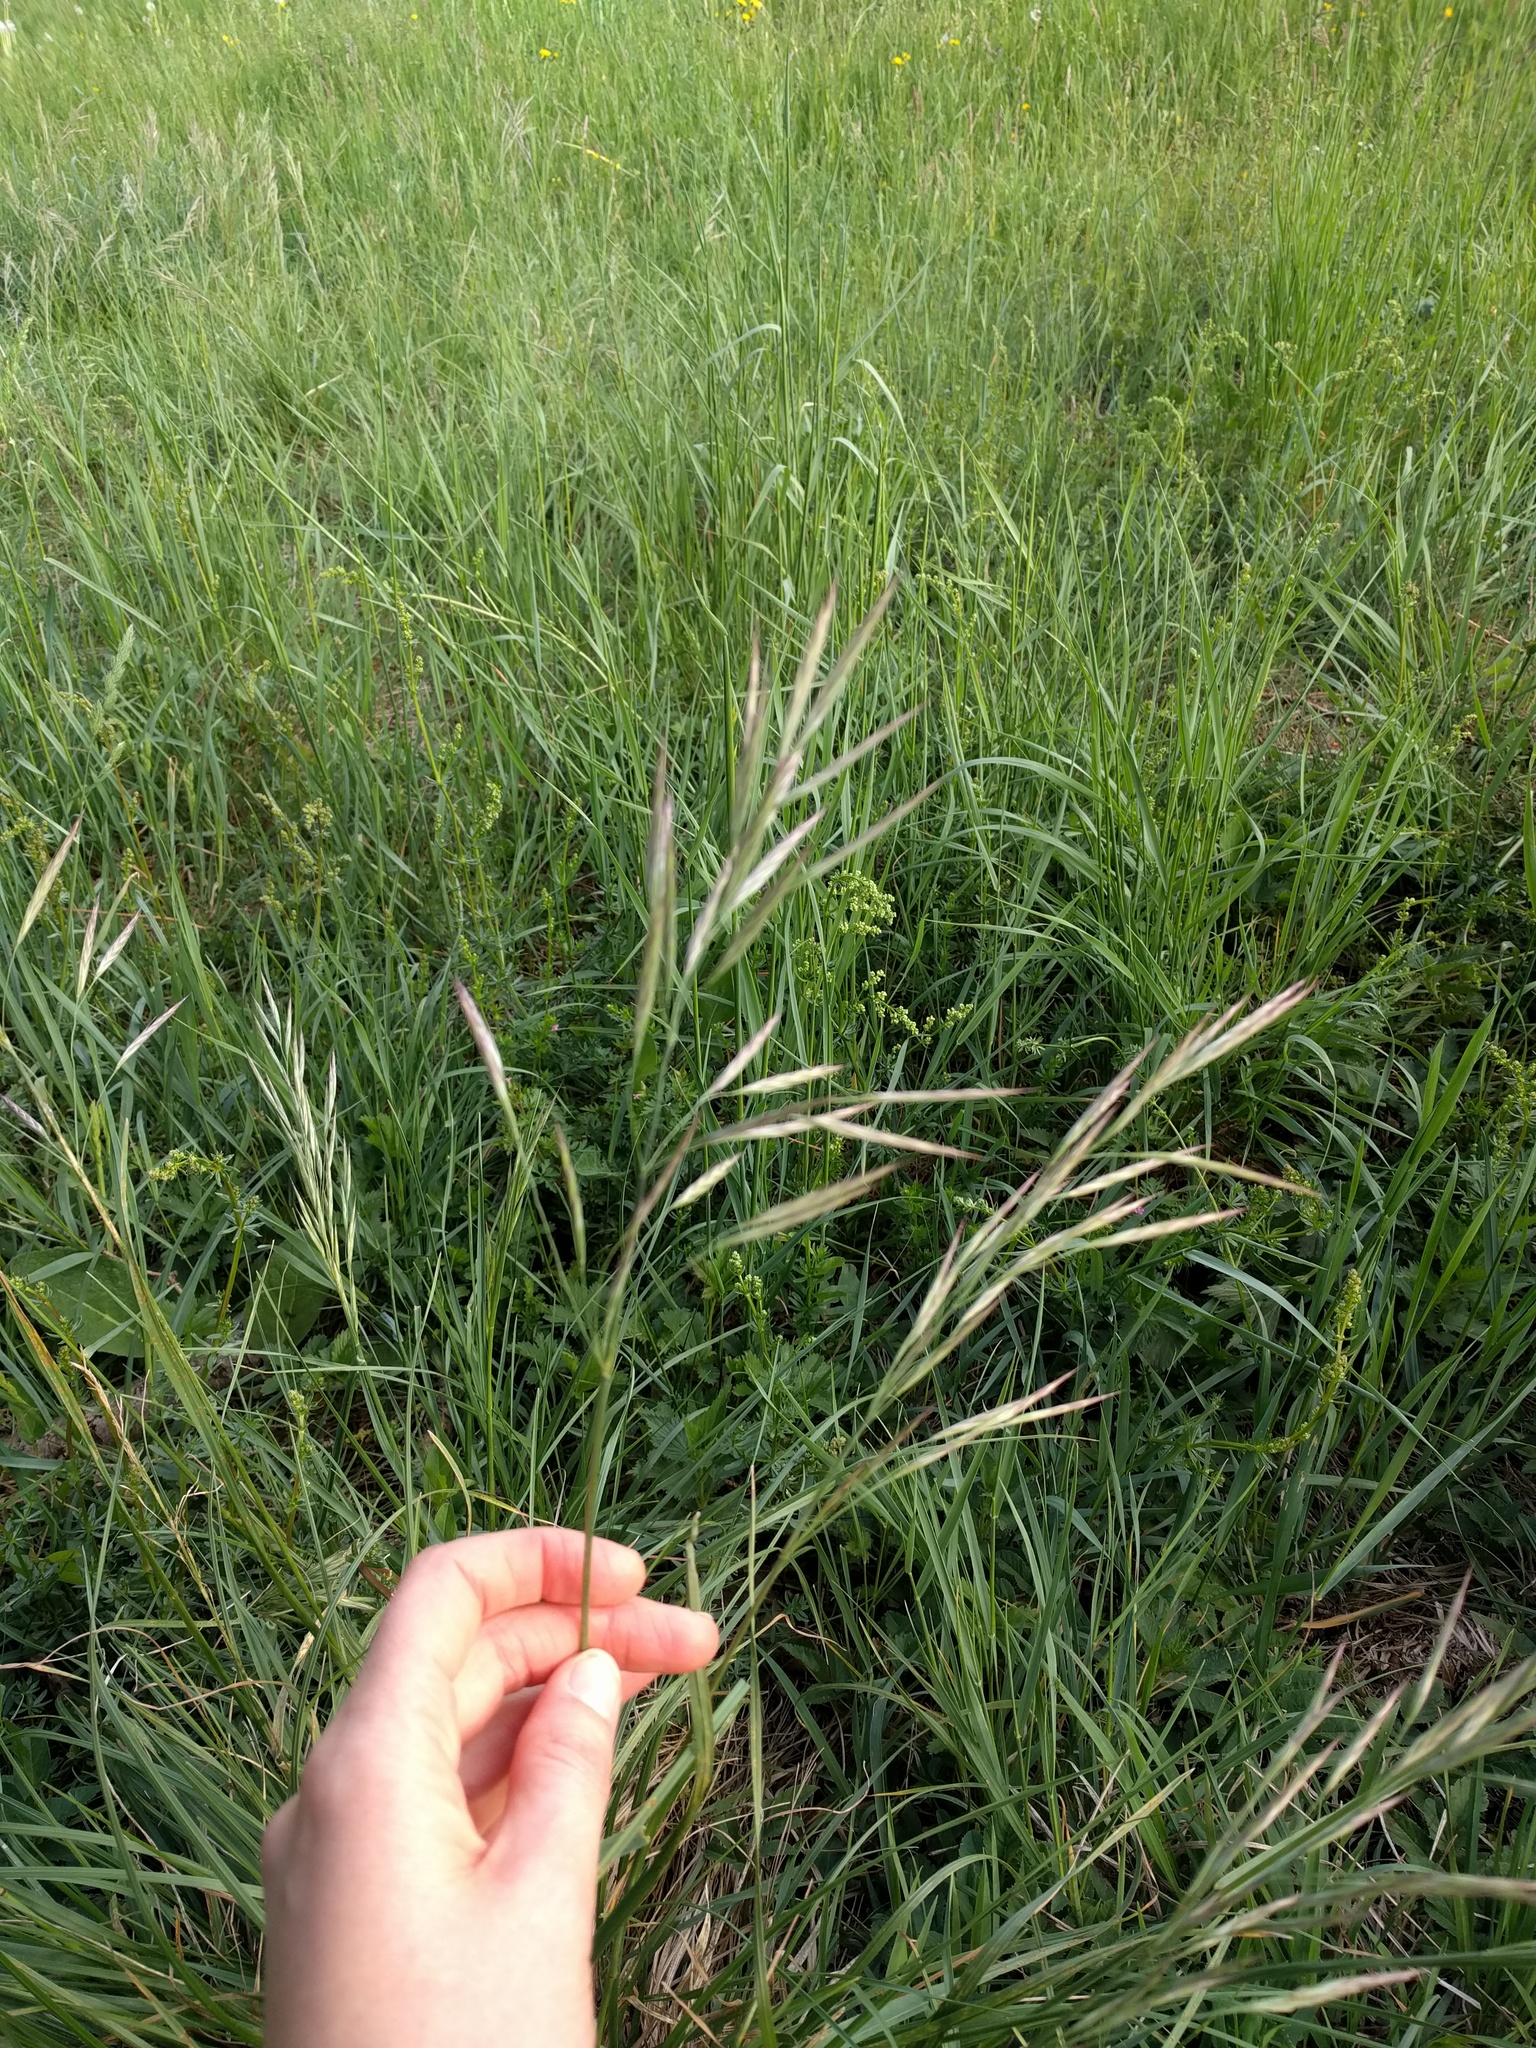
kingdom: Plantae
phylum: Tracheophyta
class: Liliopsida
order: Poales
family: Poaceae
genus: Bromus
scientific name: Bromus erectus
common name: Erect brome
